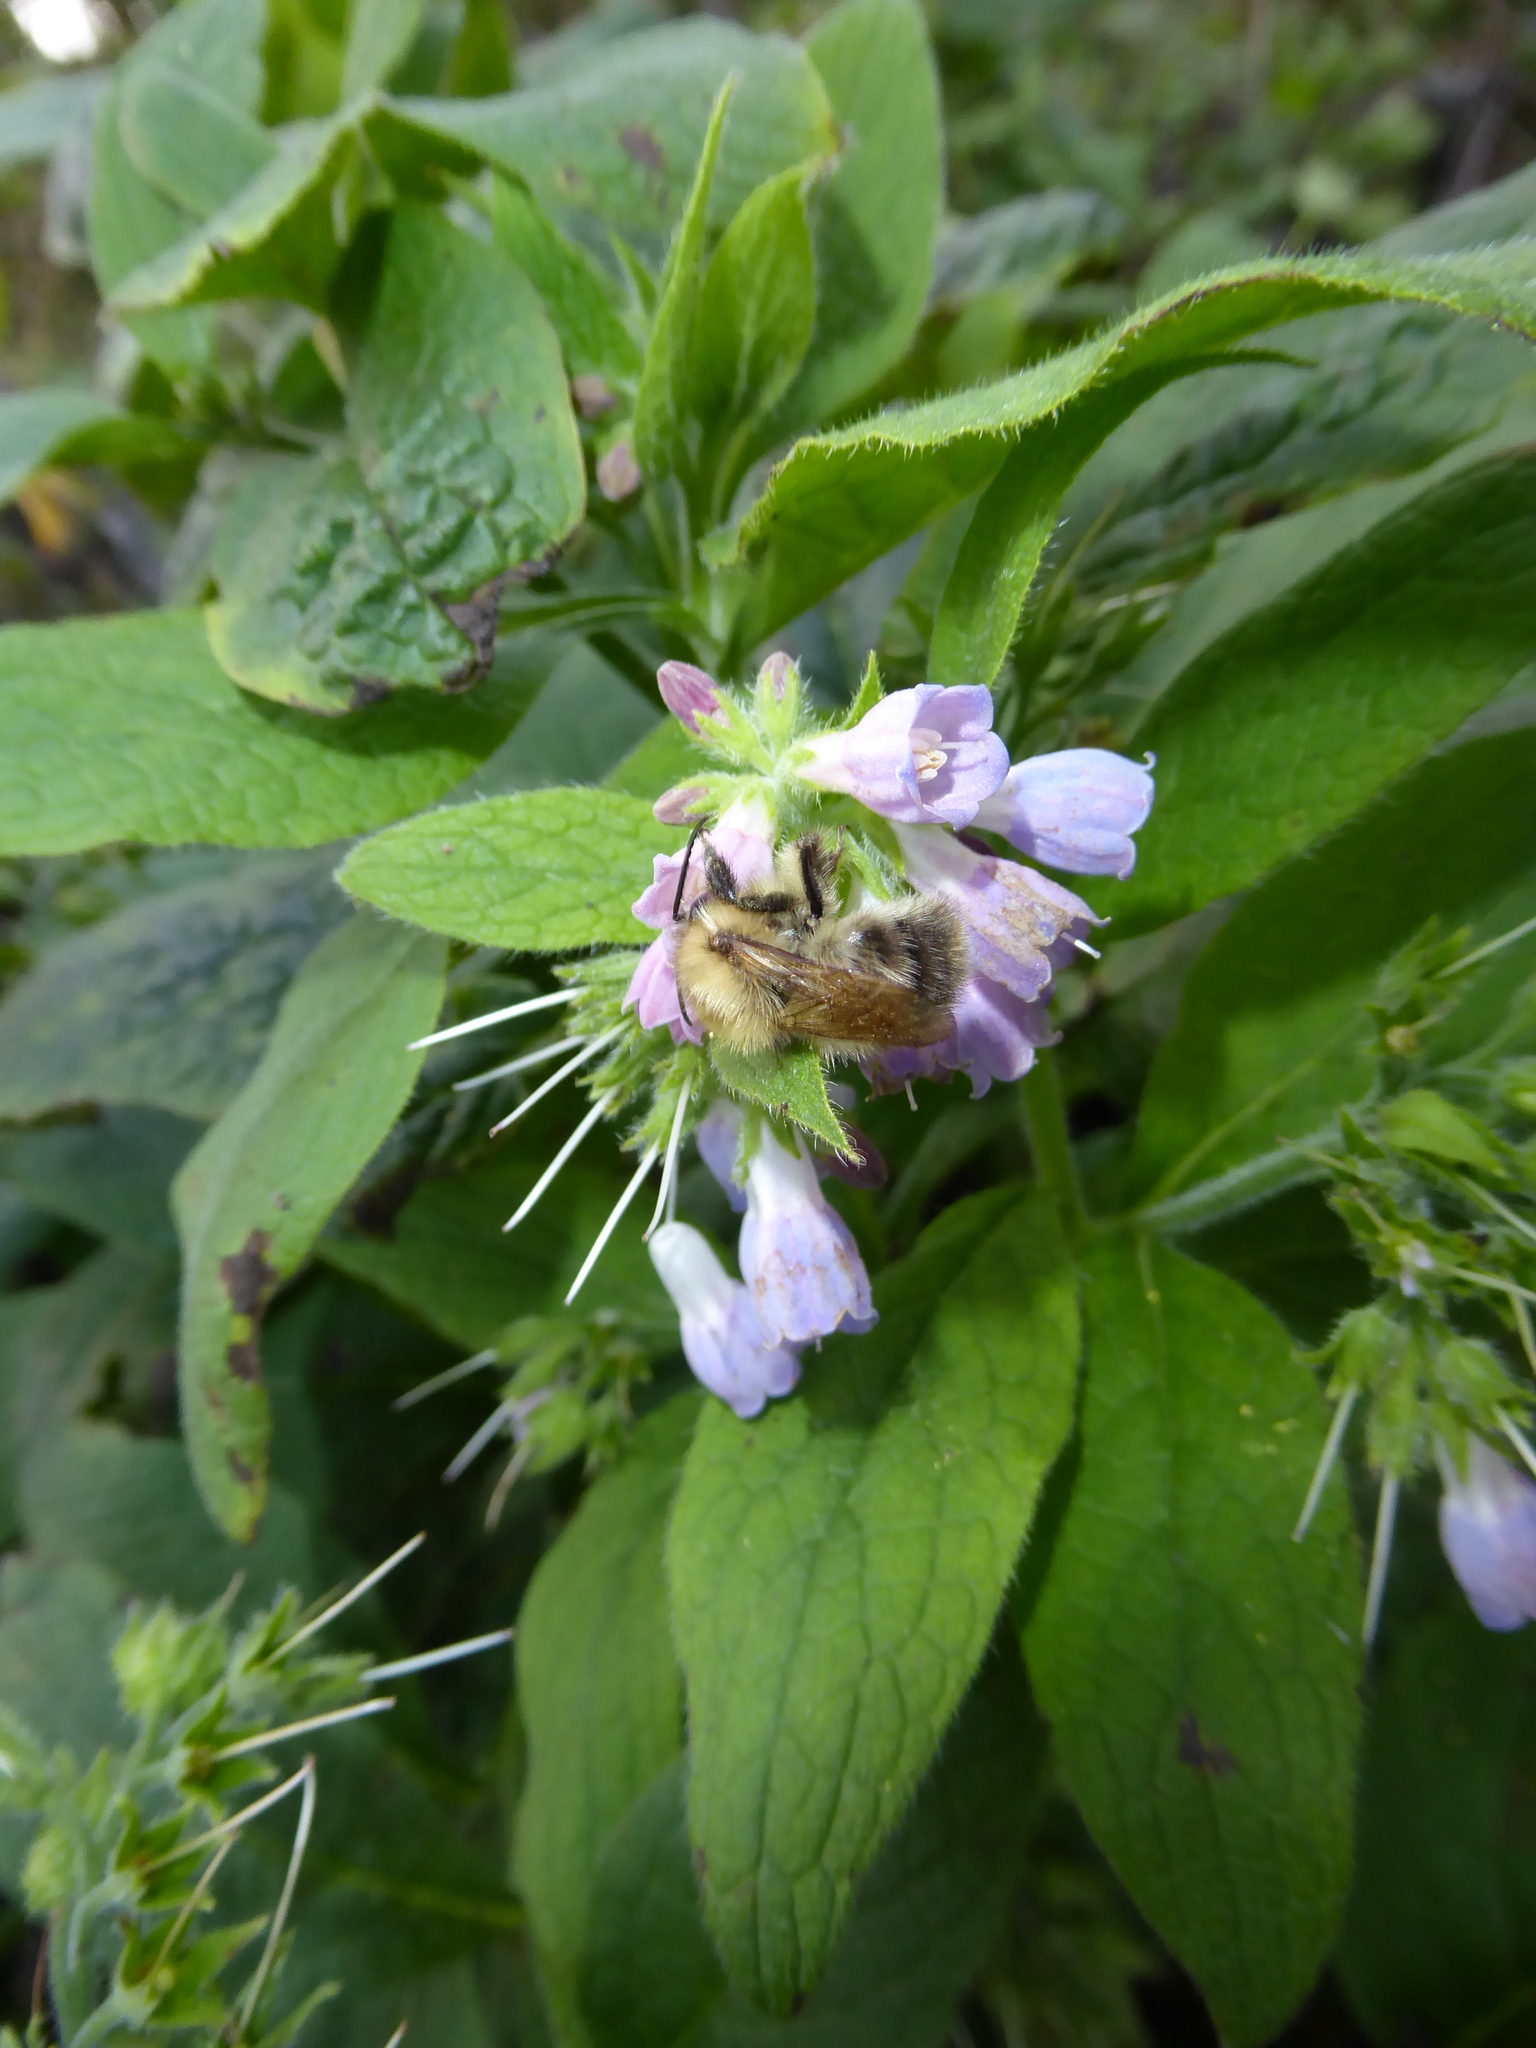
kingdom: Animalia
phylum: Arthropoda
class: Insecta
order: Hymenoptera
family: Apidae
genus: Bombus
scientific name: Bombus pascuorum
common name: Common carder bee
